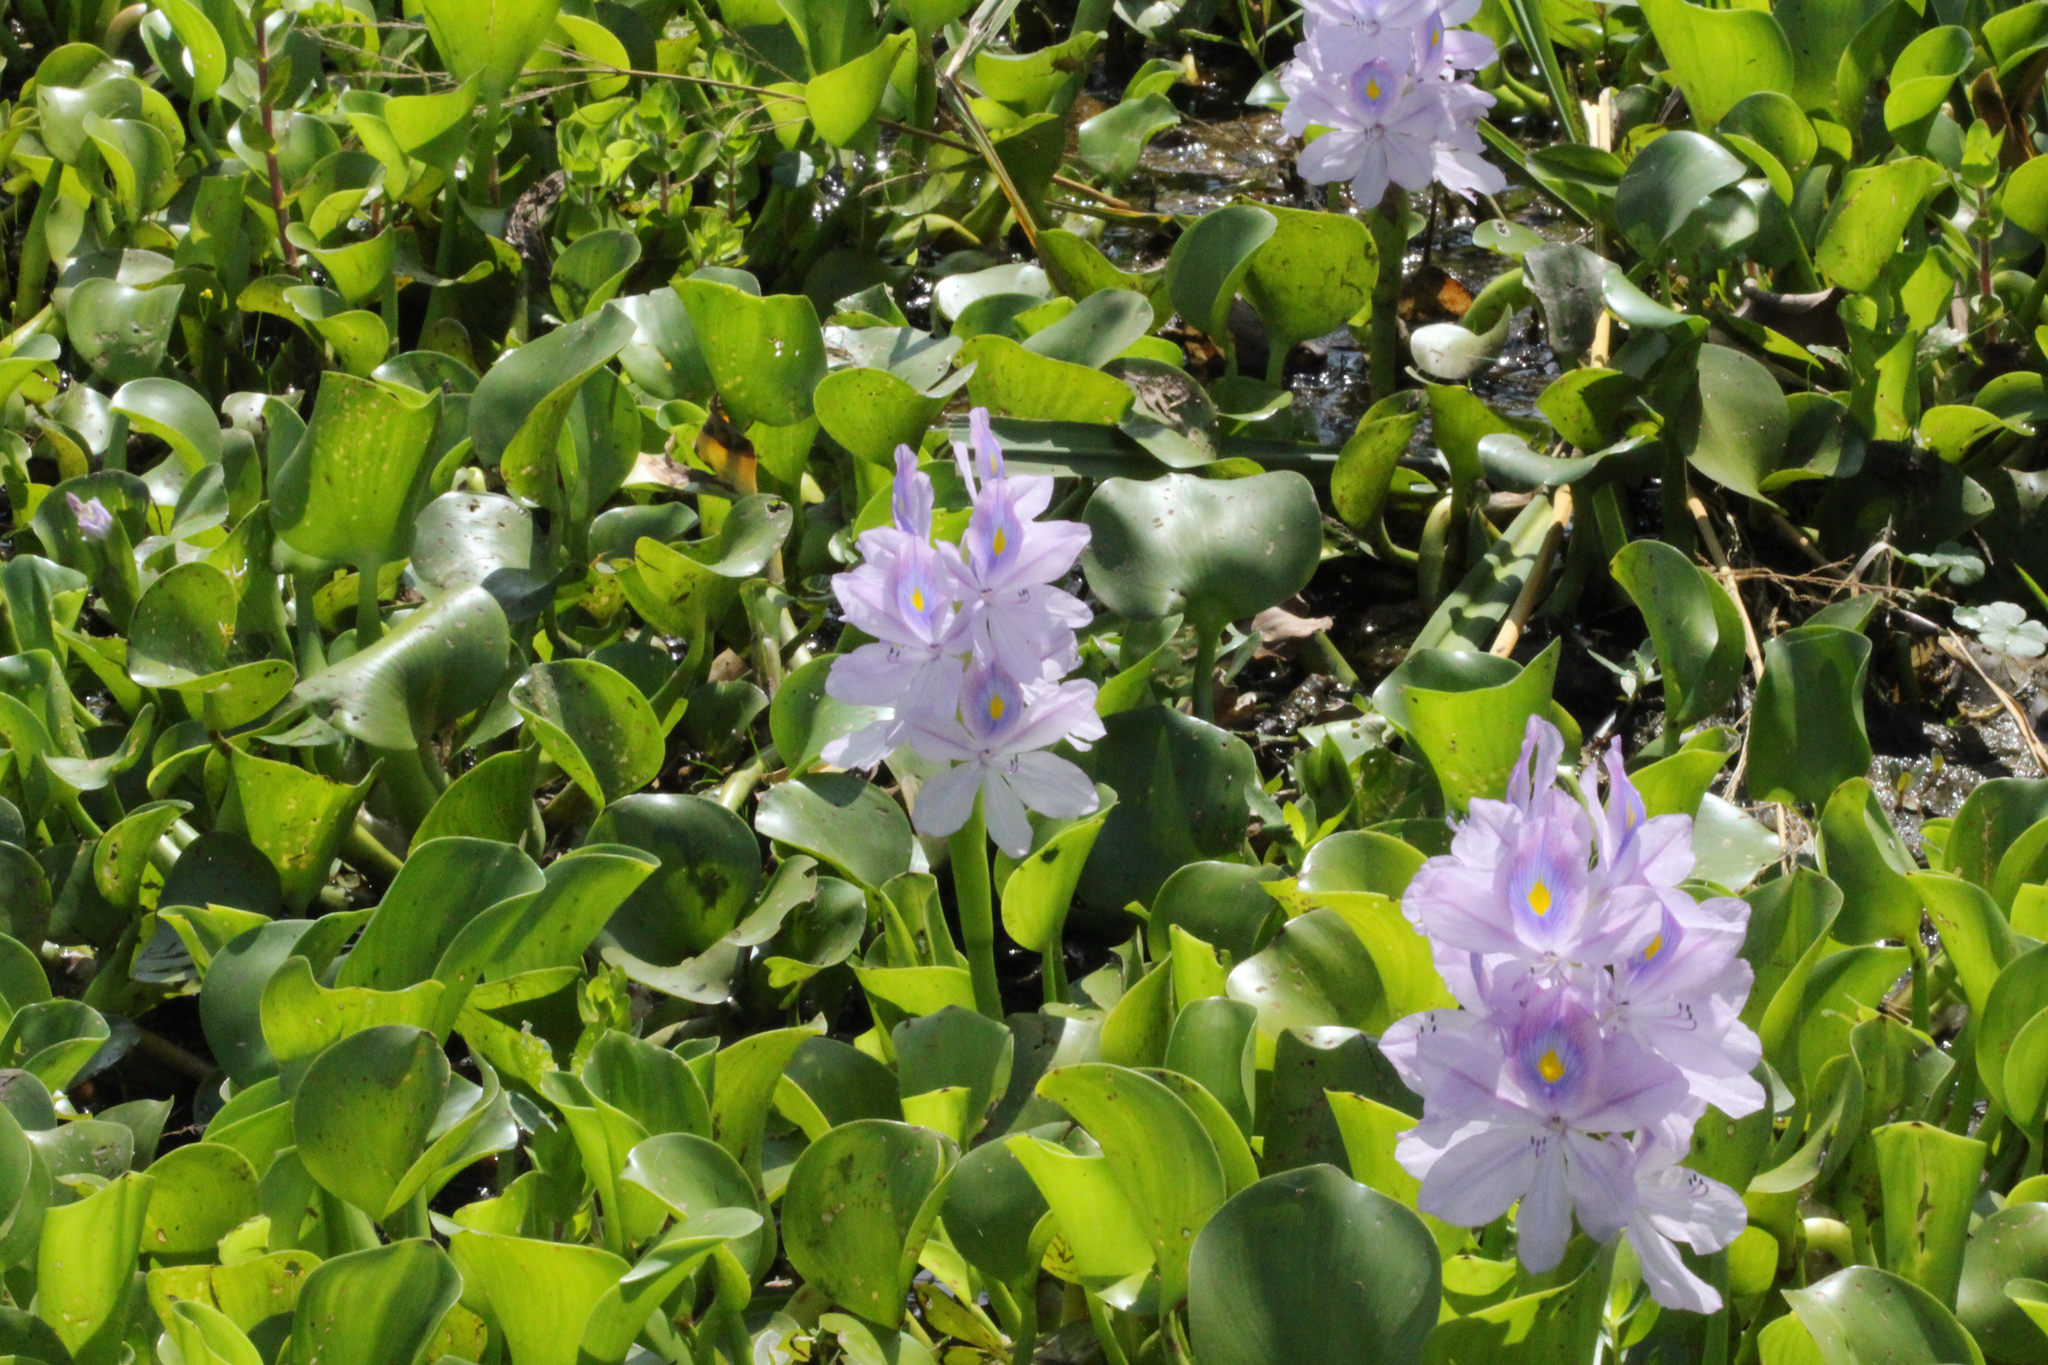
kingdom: Plantae
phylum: Tracheophyta
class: Liliopsida
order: Commelinales
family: Pontederiaceae
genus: Pontederia
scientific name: Pontederia crassipes
